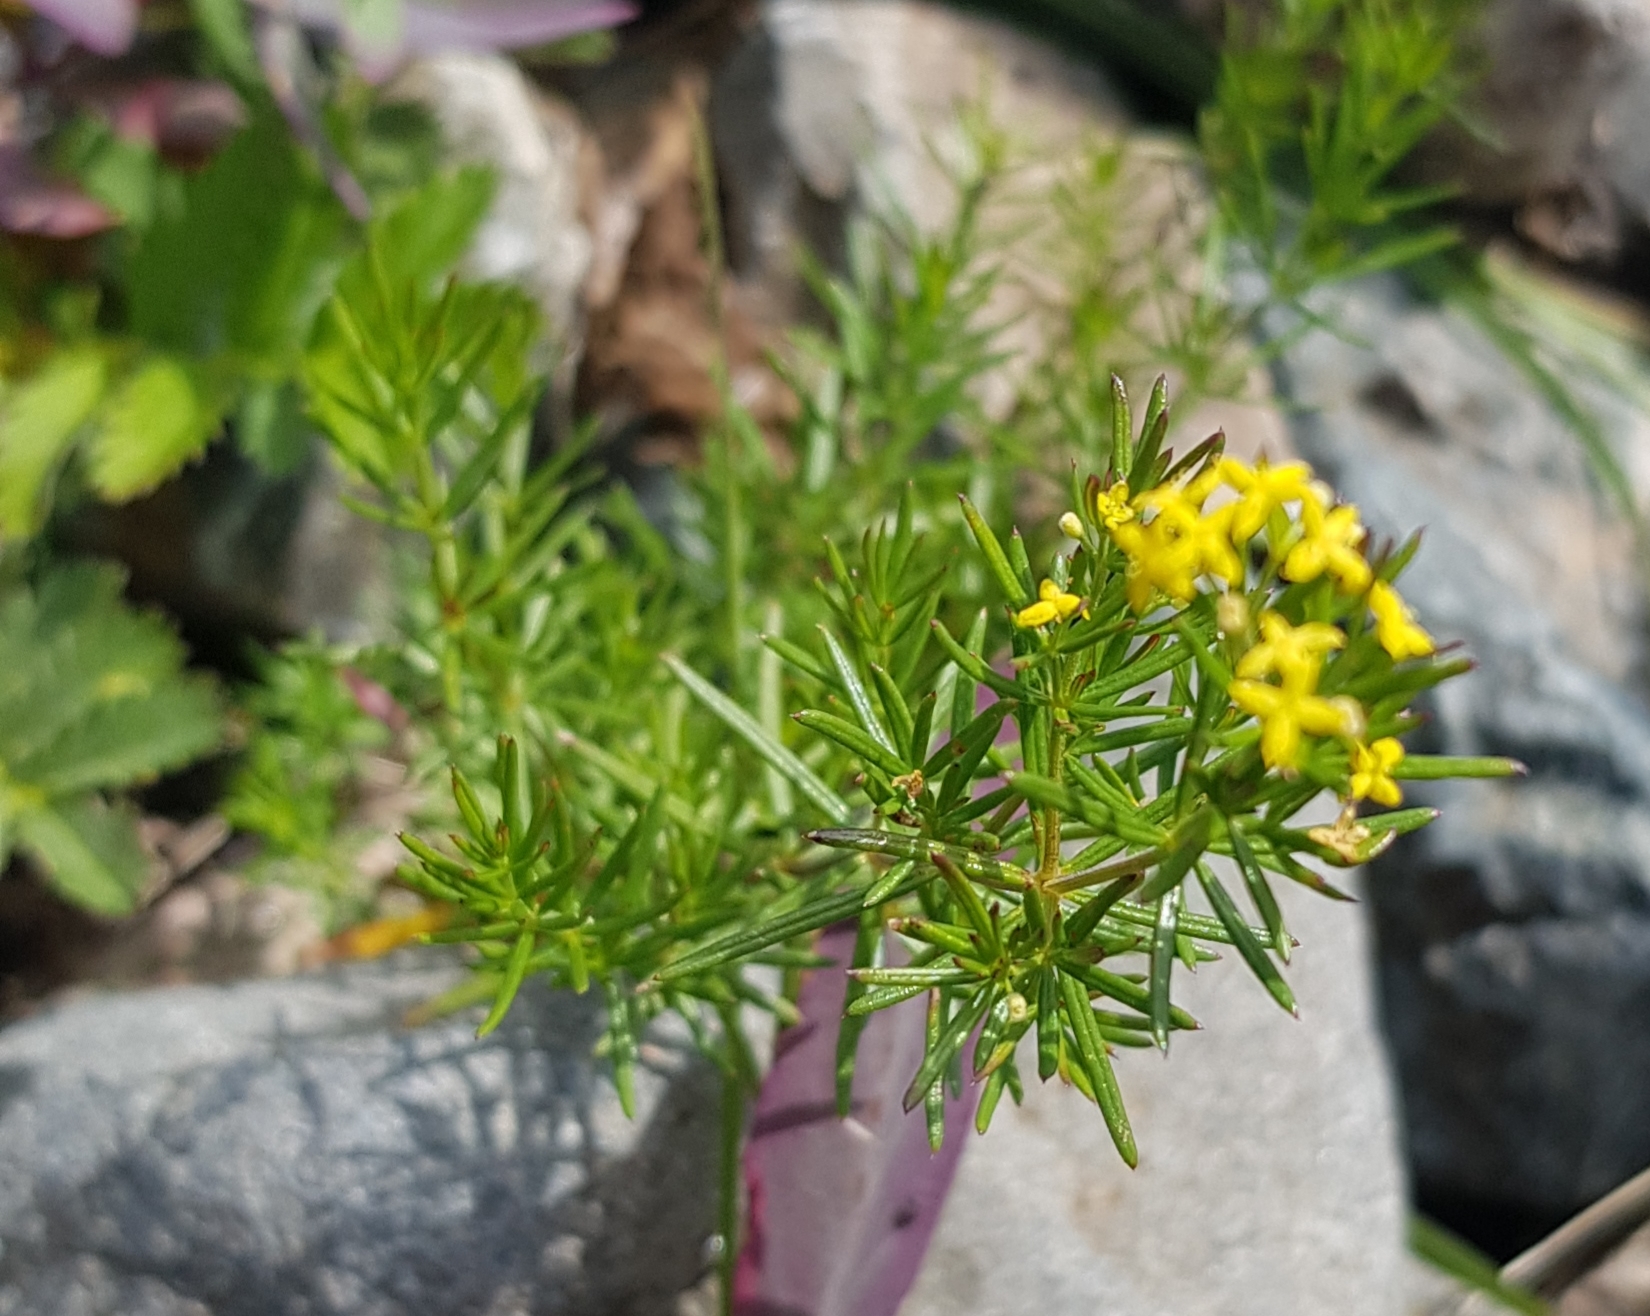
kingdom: Plantae
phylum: Tracheophyta
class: Magnoliopsida
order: Gentianales
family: Rubiaceae
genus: Galium
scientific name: Galium verum
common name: Lady's bedstraw
